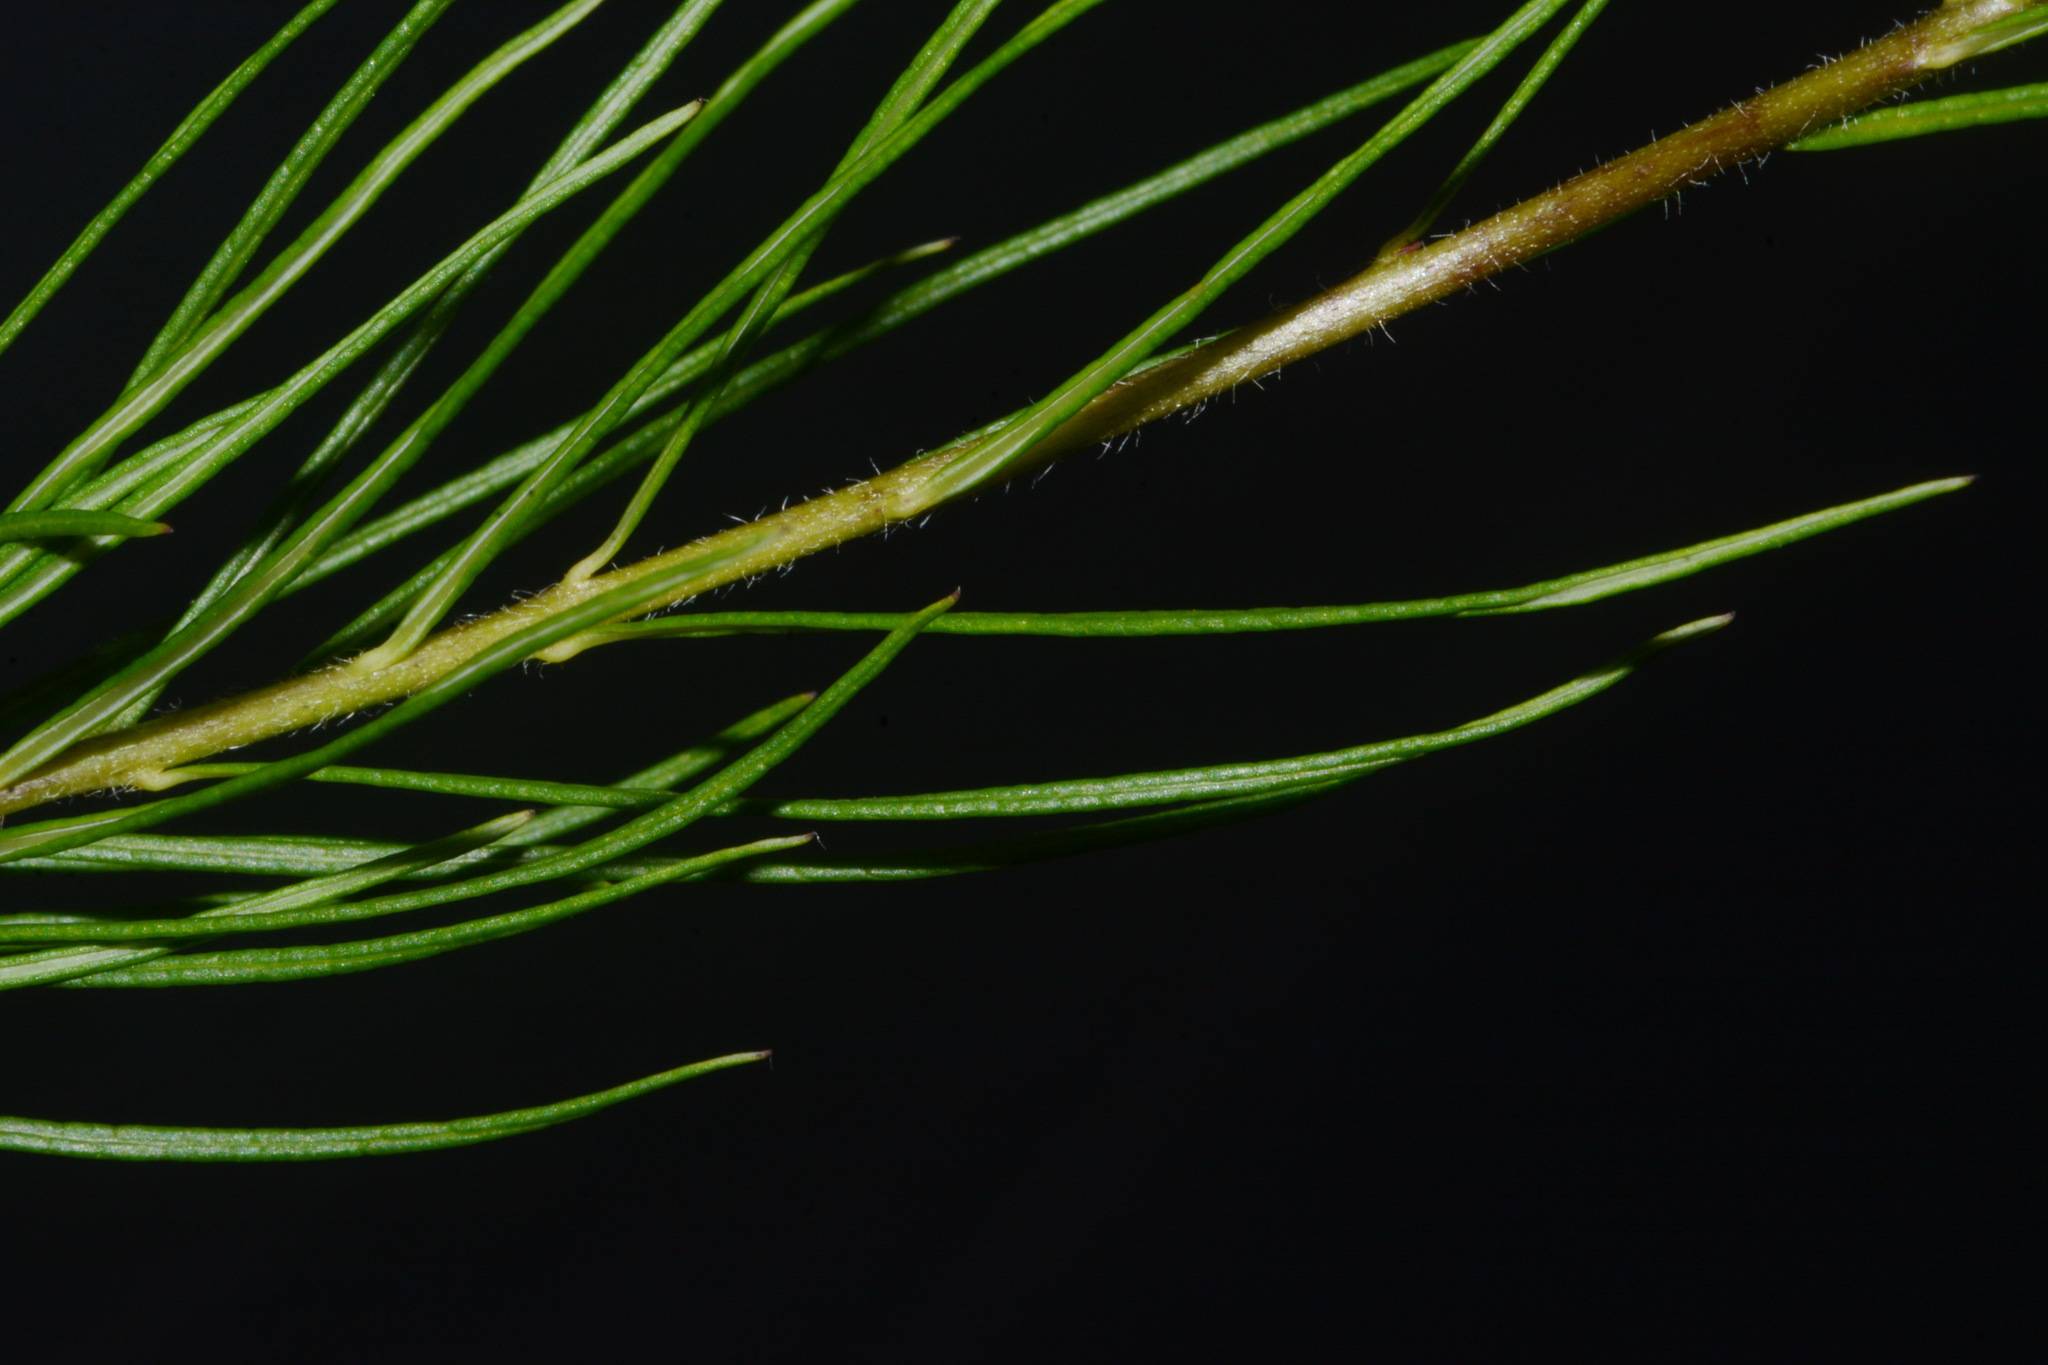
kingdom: Plantae
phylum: Tracheophyta
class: Magnoliopsida
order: Gentianales
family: Apocynaceae
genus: Amsonia
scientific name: Amsonia ciliata
